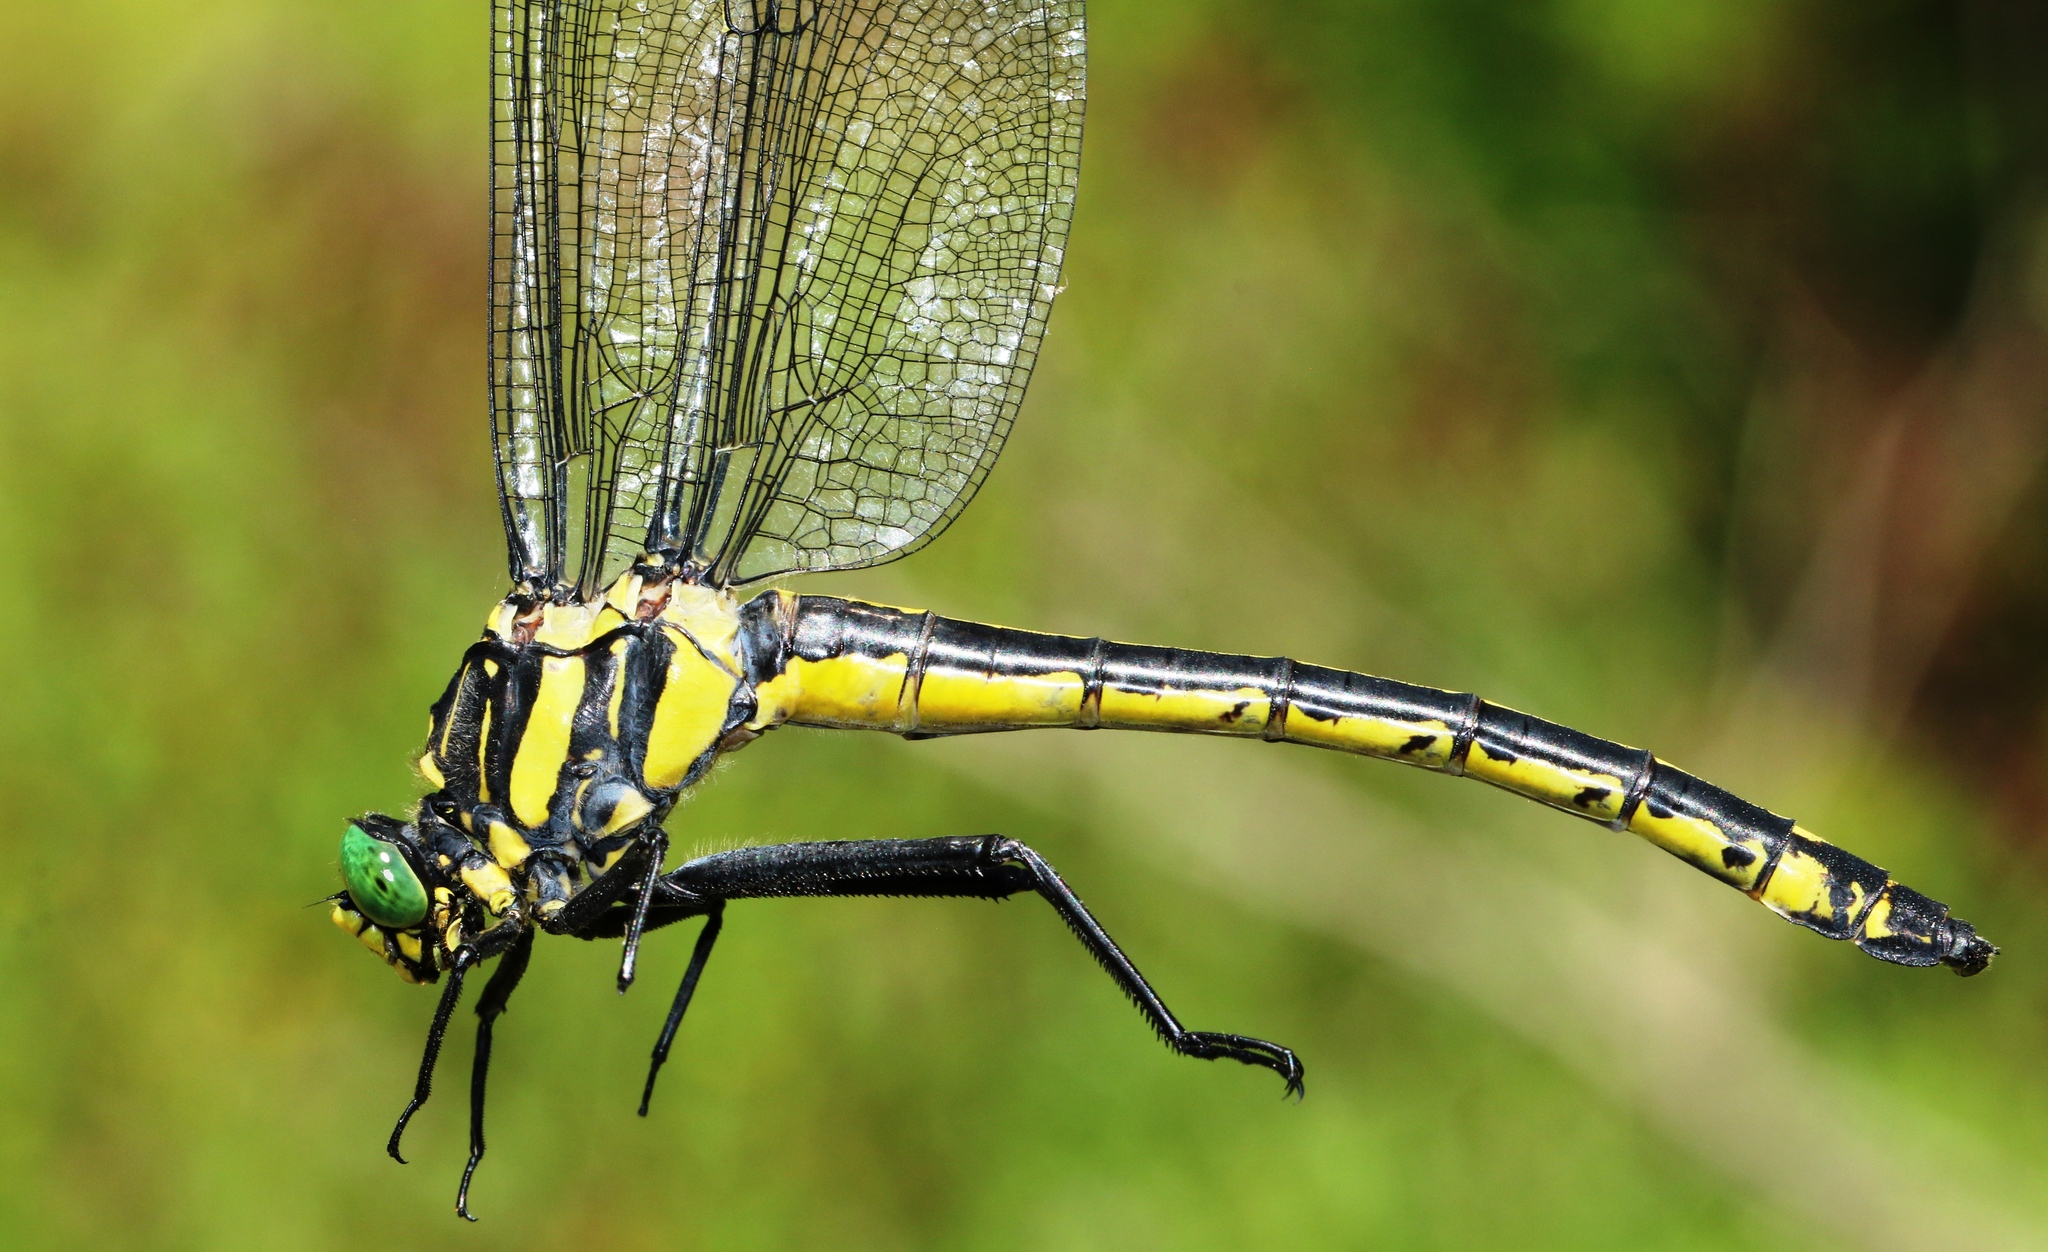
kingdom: Animalia
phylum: Arthropoda
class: Insecta
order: Odonata
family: Gomphidae
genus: Hagenius
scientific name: Hagenius brevistylus
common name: Dragonhunter
